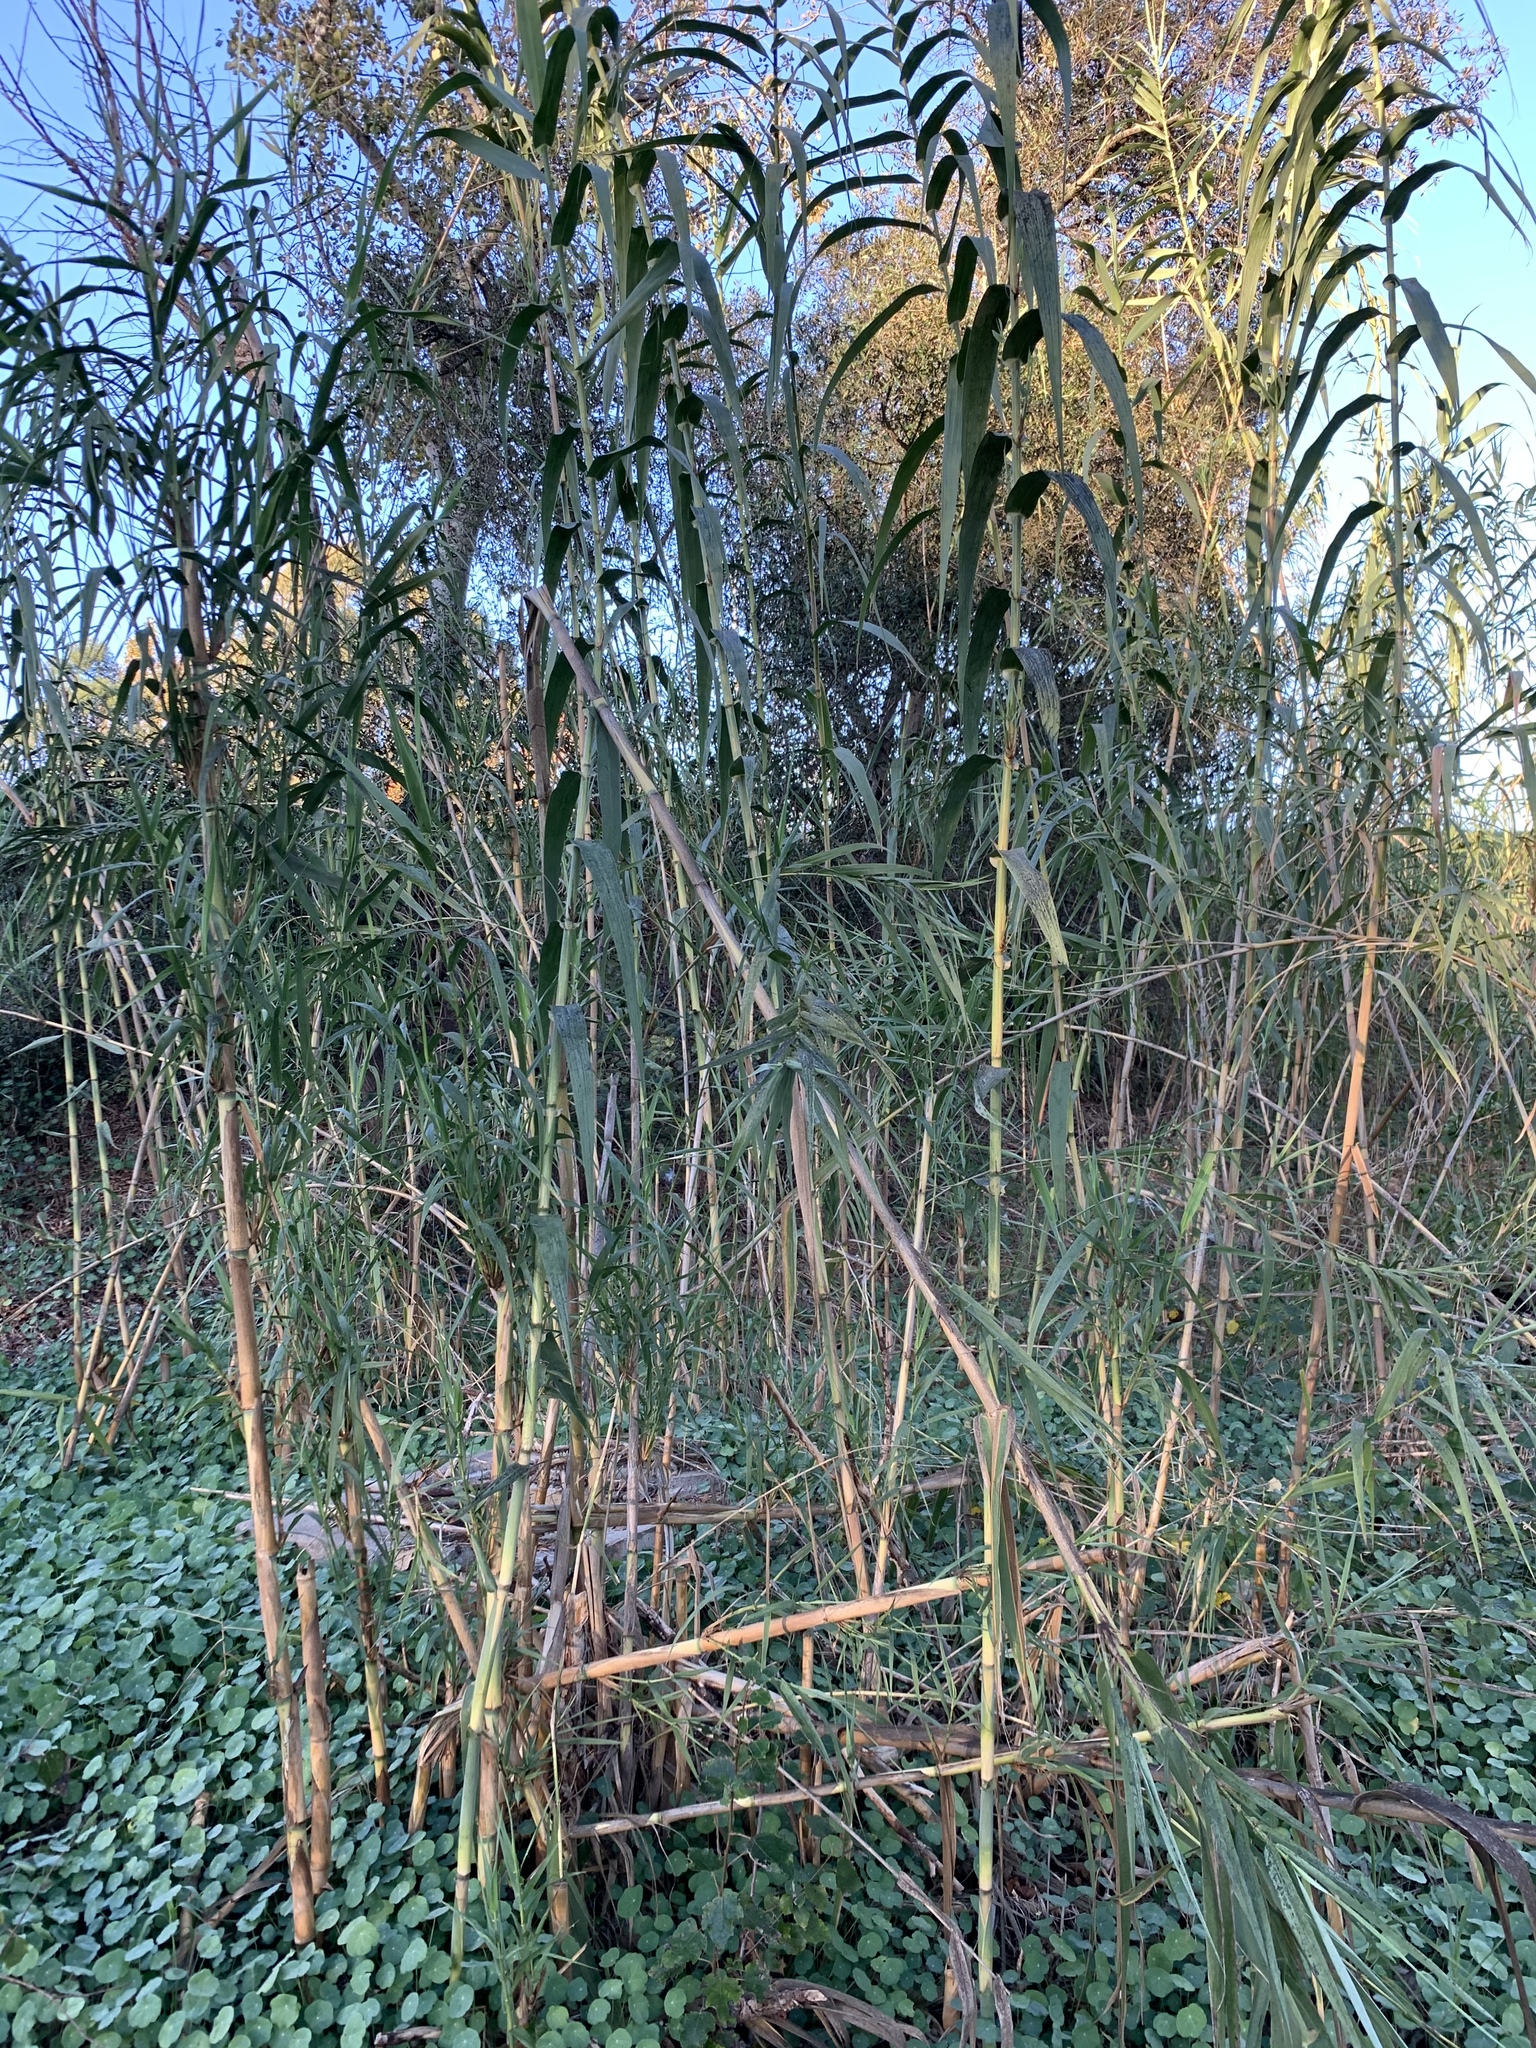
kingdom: Plantae
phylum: Tracheophyta
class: Liliopsida
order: Poales
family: Poaceae
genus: Arundo
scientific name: Arundo donax
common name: Giant reed
